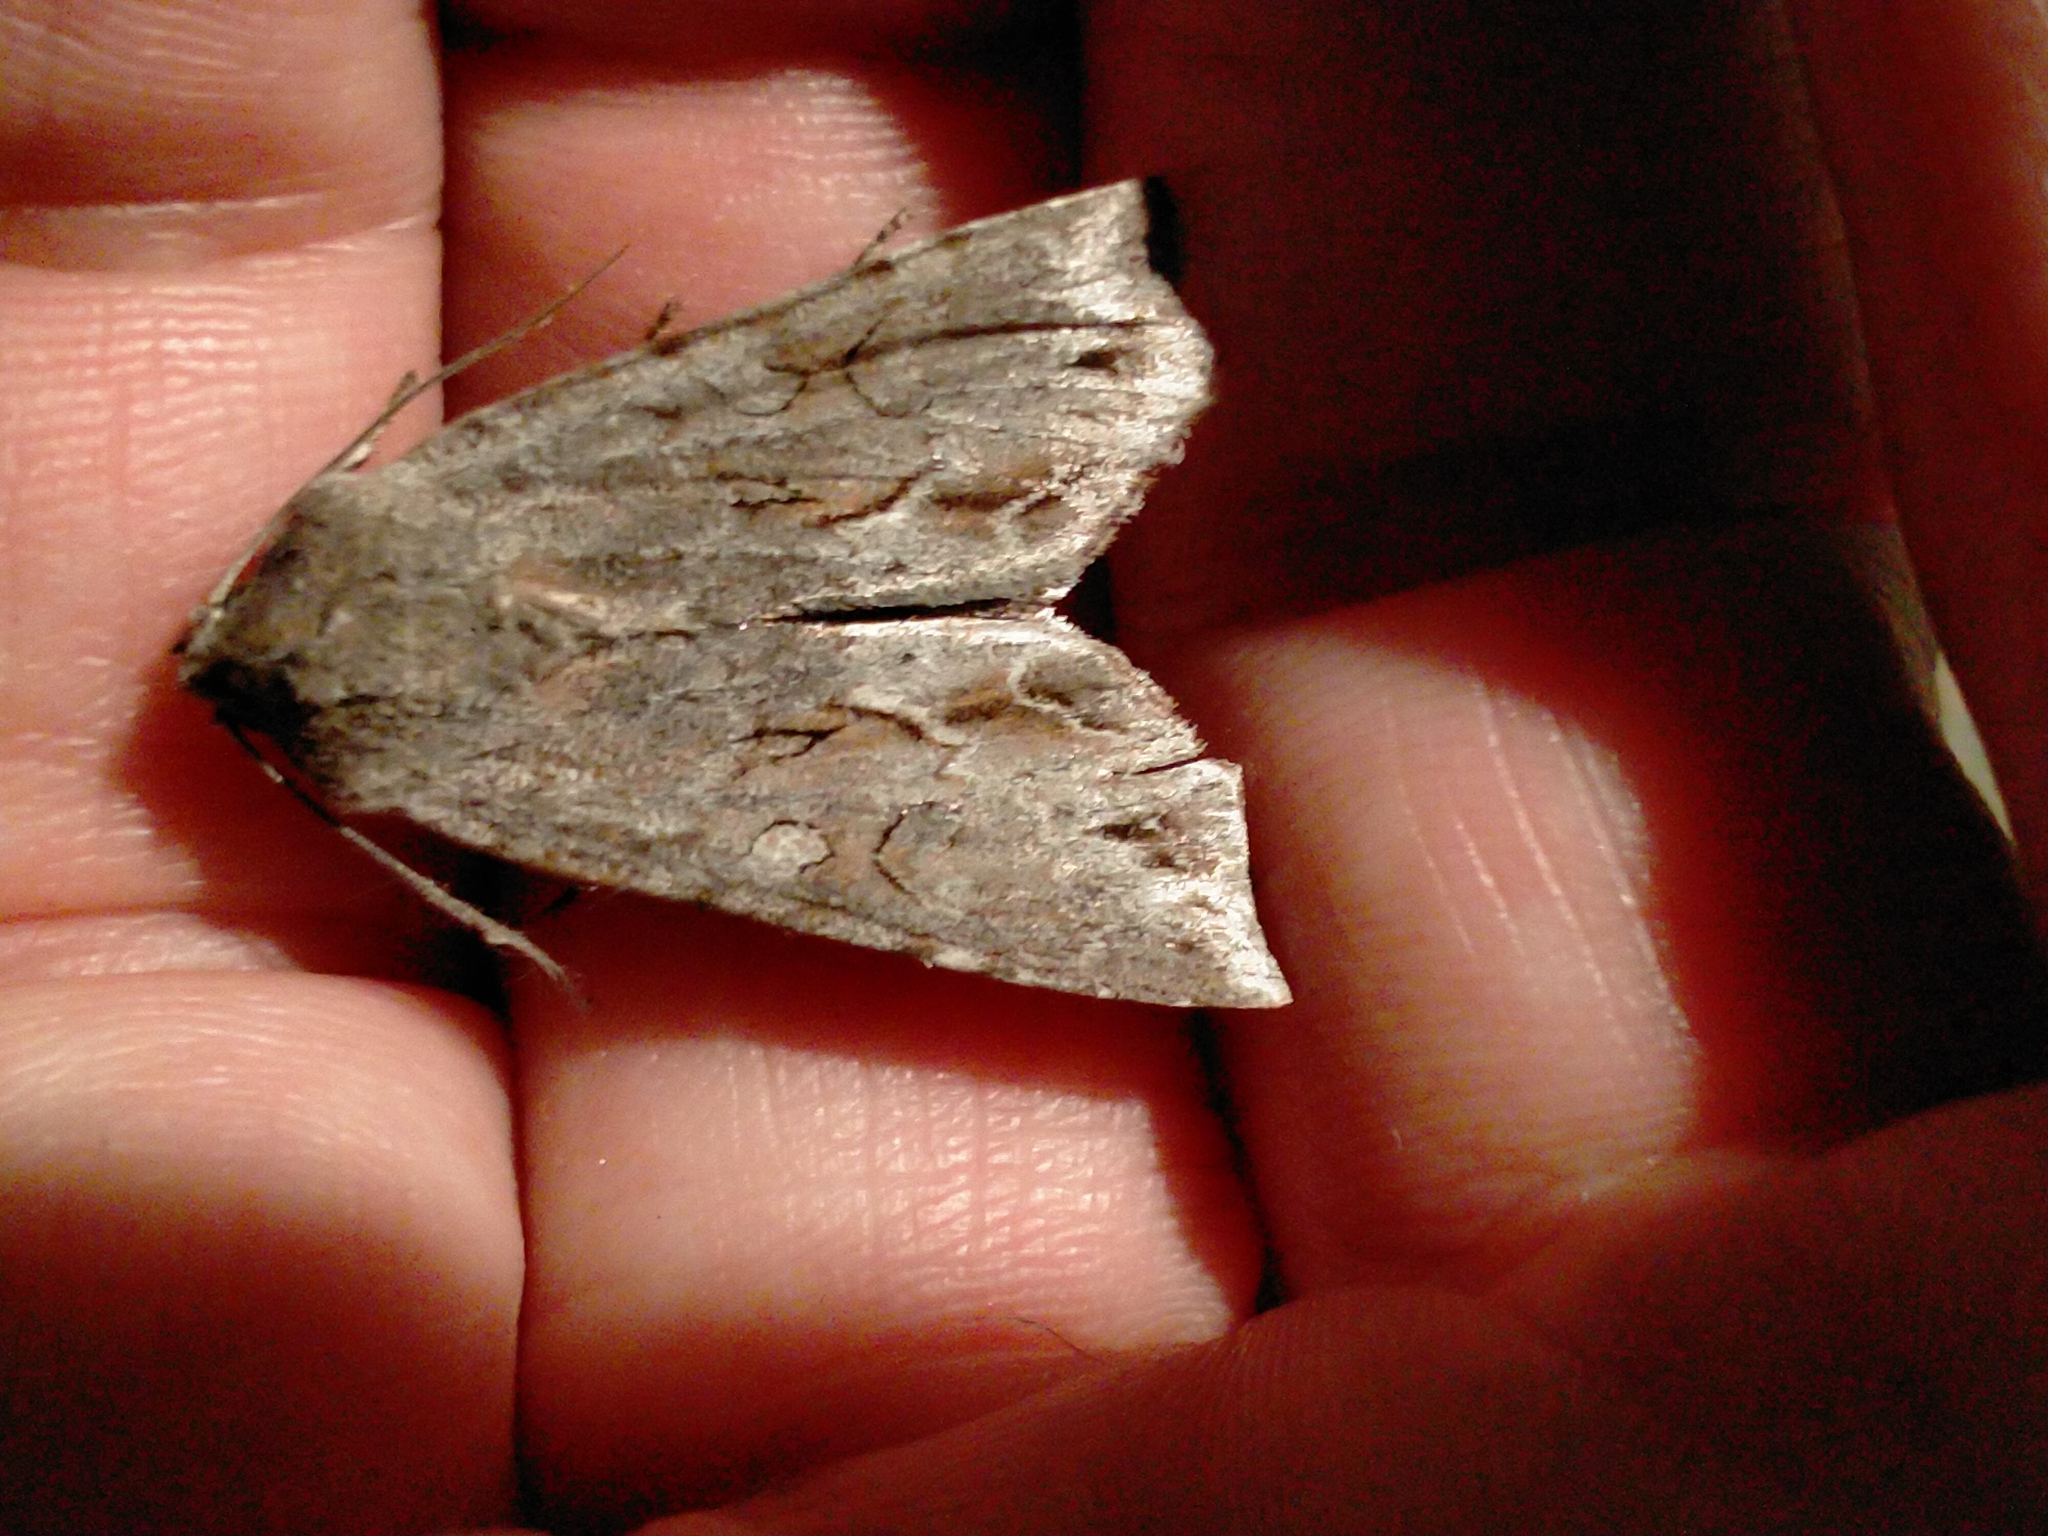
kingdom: Animalia
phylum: Arthropoda
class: Insecta
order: Lepidoptera
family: Noctuidae
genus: Ichneutica
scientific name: Ichneutica
